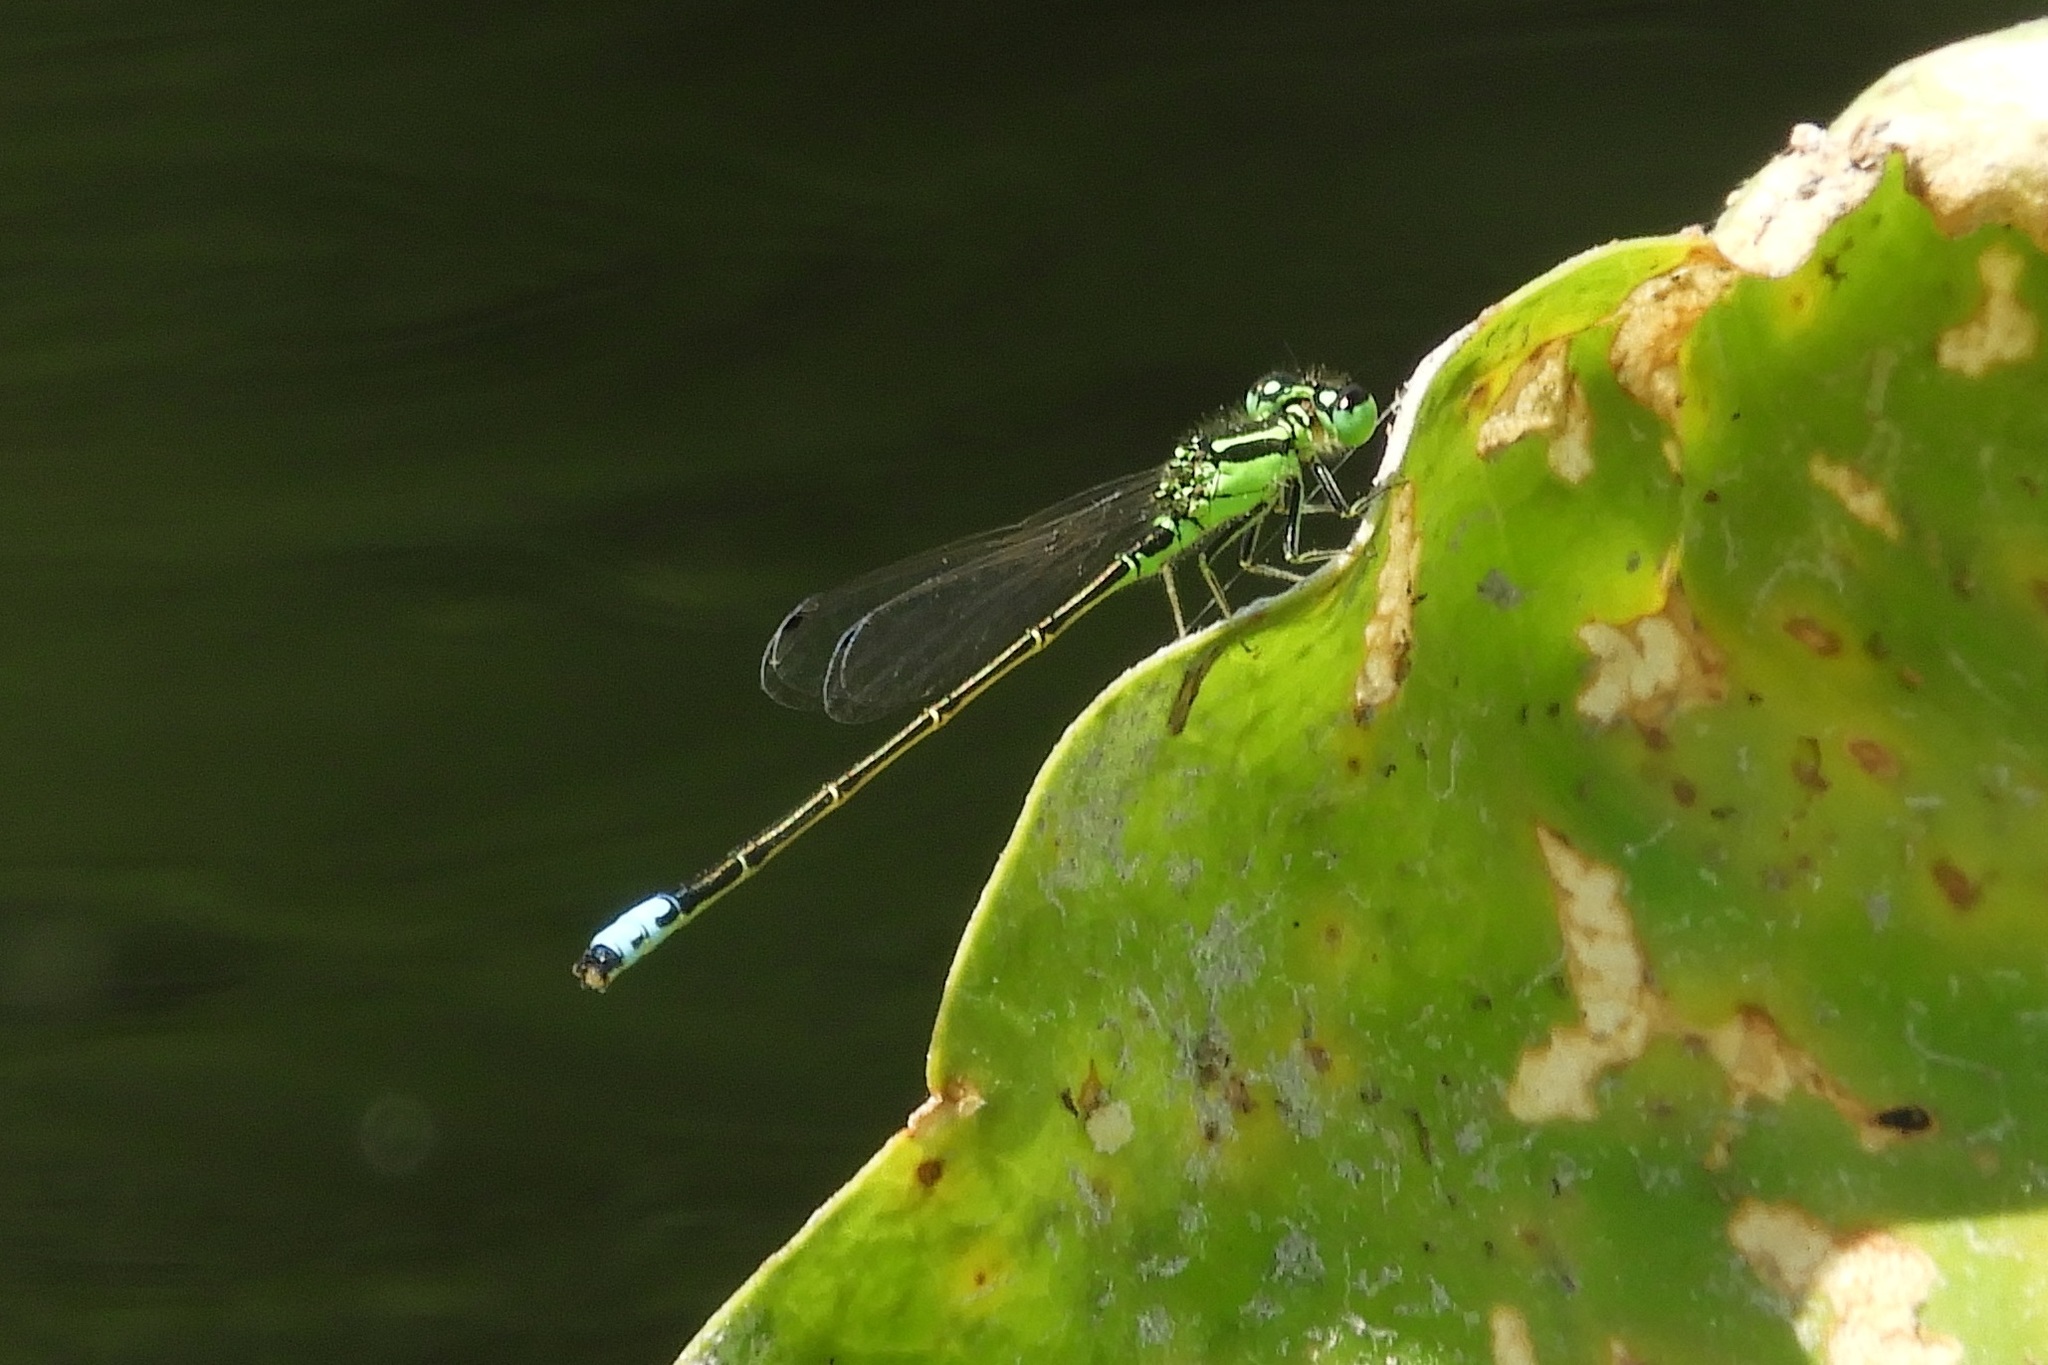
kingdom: Animalia
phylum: Arthropoda
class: Insecta
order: Odonata
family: Coenagrionidae
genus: Ischnura
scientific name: Ischnura verticalis
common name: Eastern forktail
